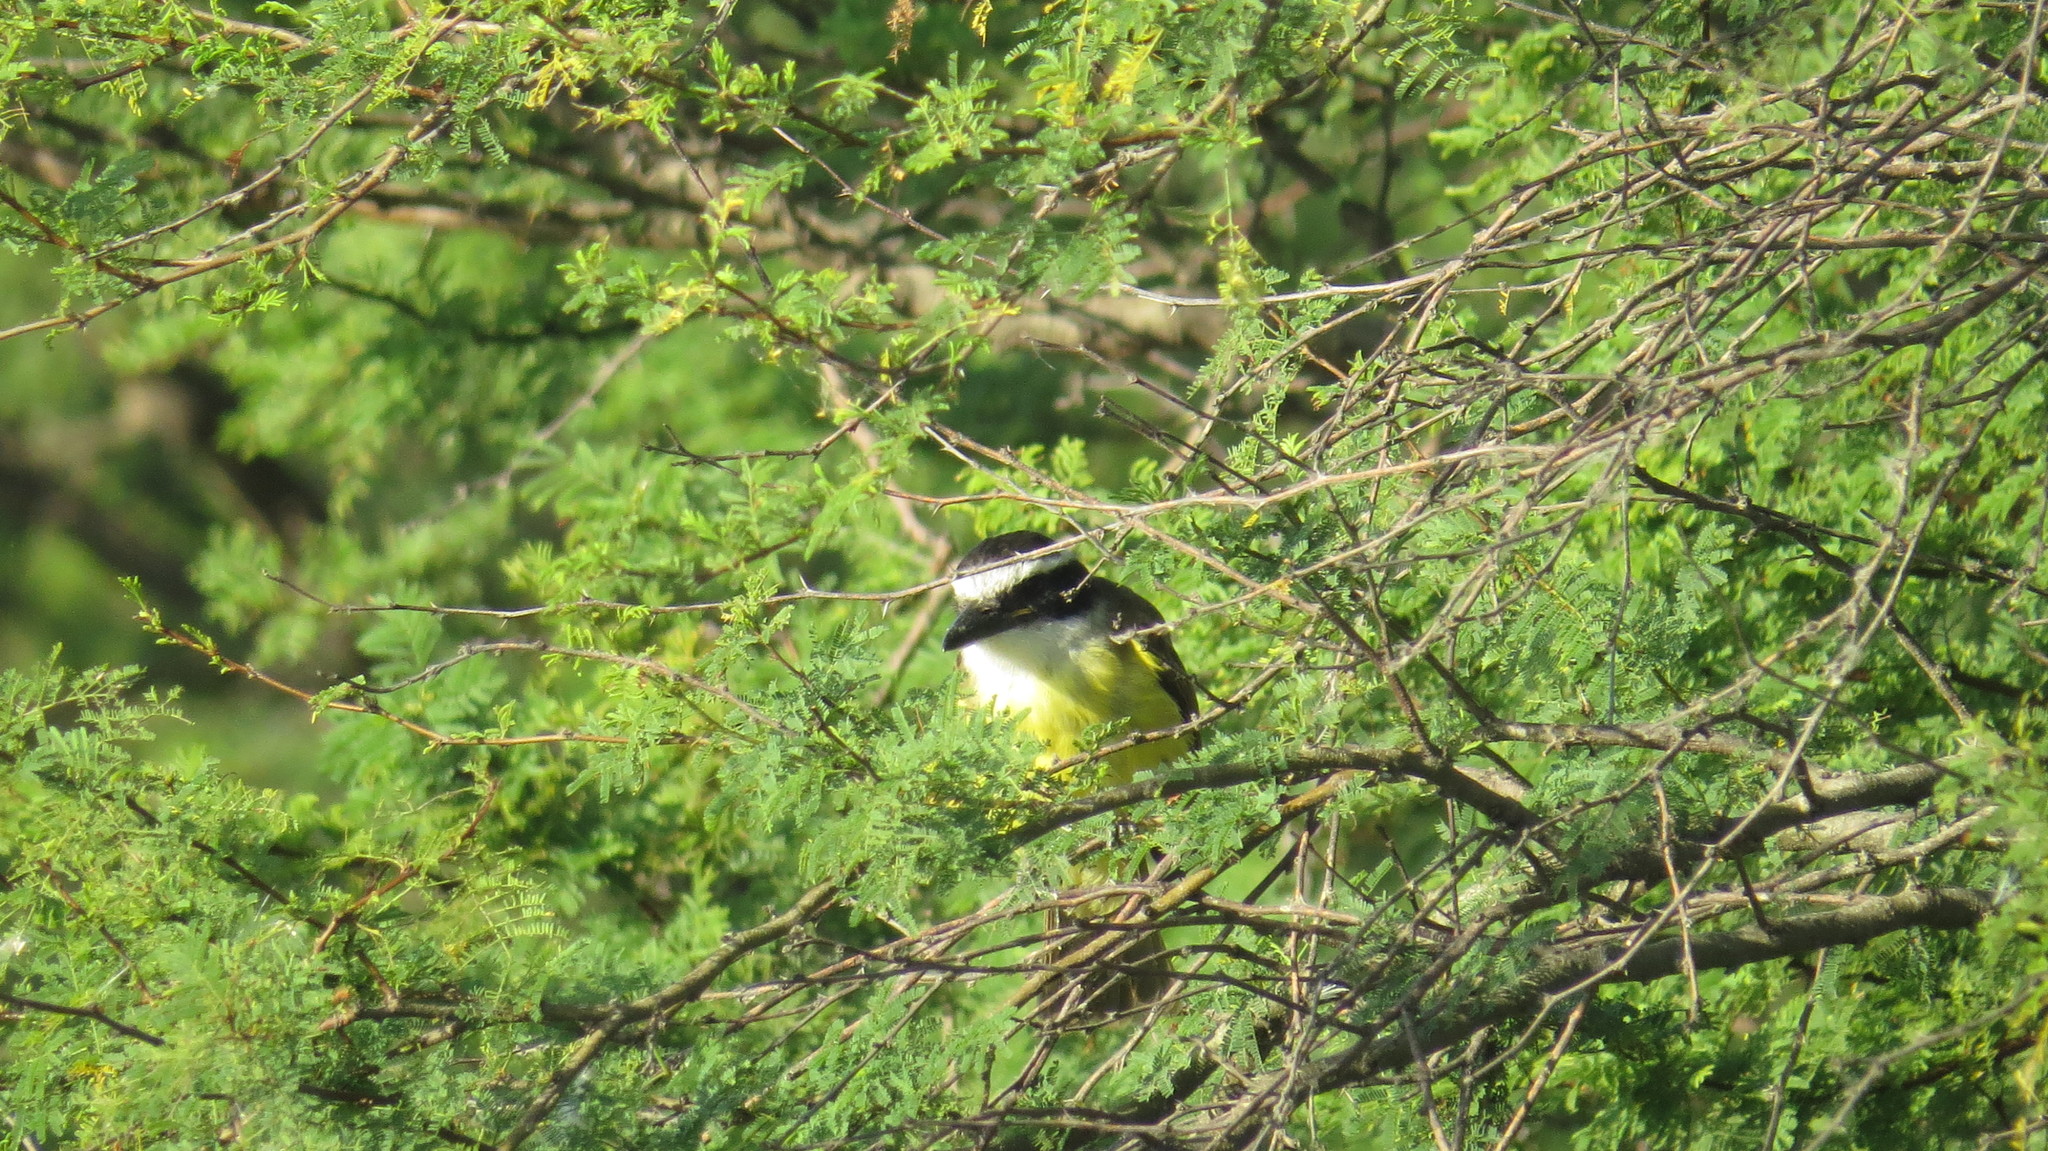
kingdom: Animalia
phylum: Chordata
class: Aves
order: Passeriformes
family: Tyrannidae
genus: Pitangus
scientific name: Pitangus sulphuratus
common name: Great kiskadee
